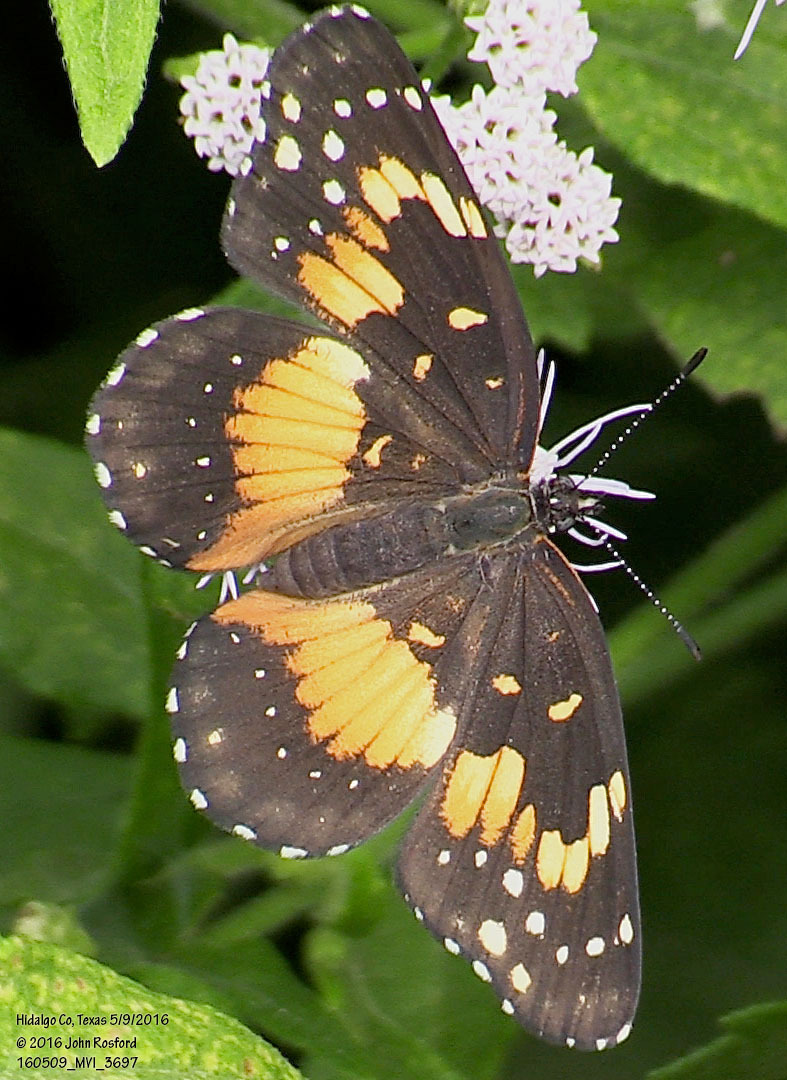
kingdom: Animalia
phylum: Arthropoda
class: Insecta
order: Lepidoptera
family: Nymphalidae
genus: Chlosyne
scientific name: Chlosyne lacinia
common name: Bordered patch
